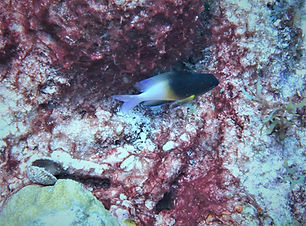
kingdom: Animalia
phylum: Chordata
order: Perciformes
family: Pomacentridae
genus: Stegastes
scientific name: Stegastes partitus
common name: Bicolor damselfish
